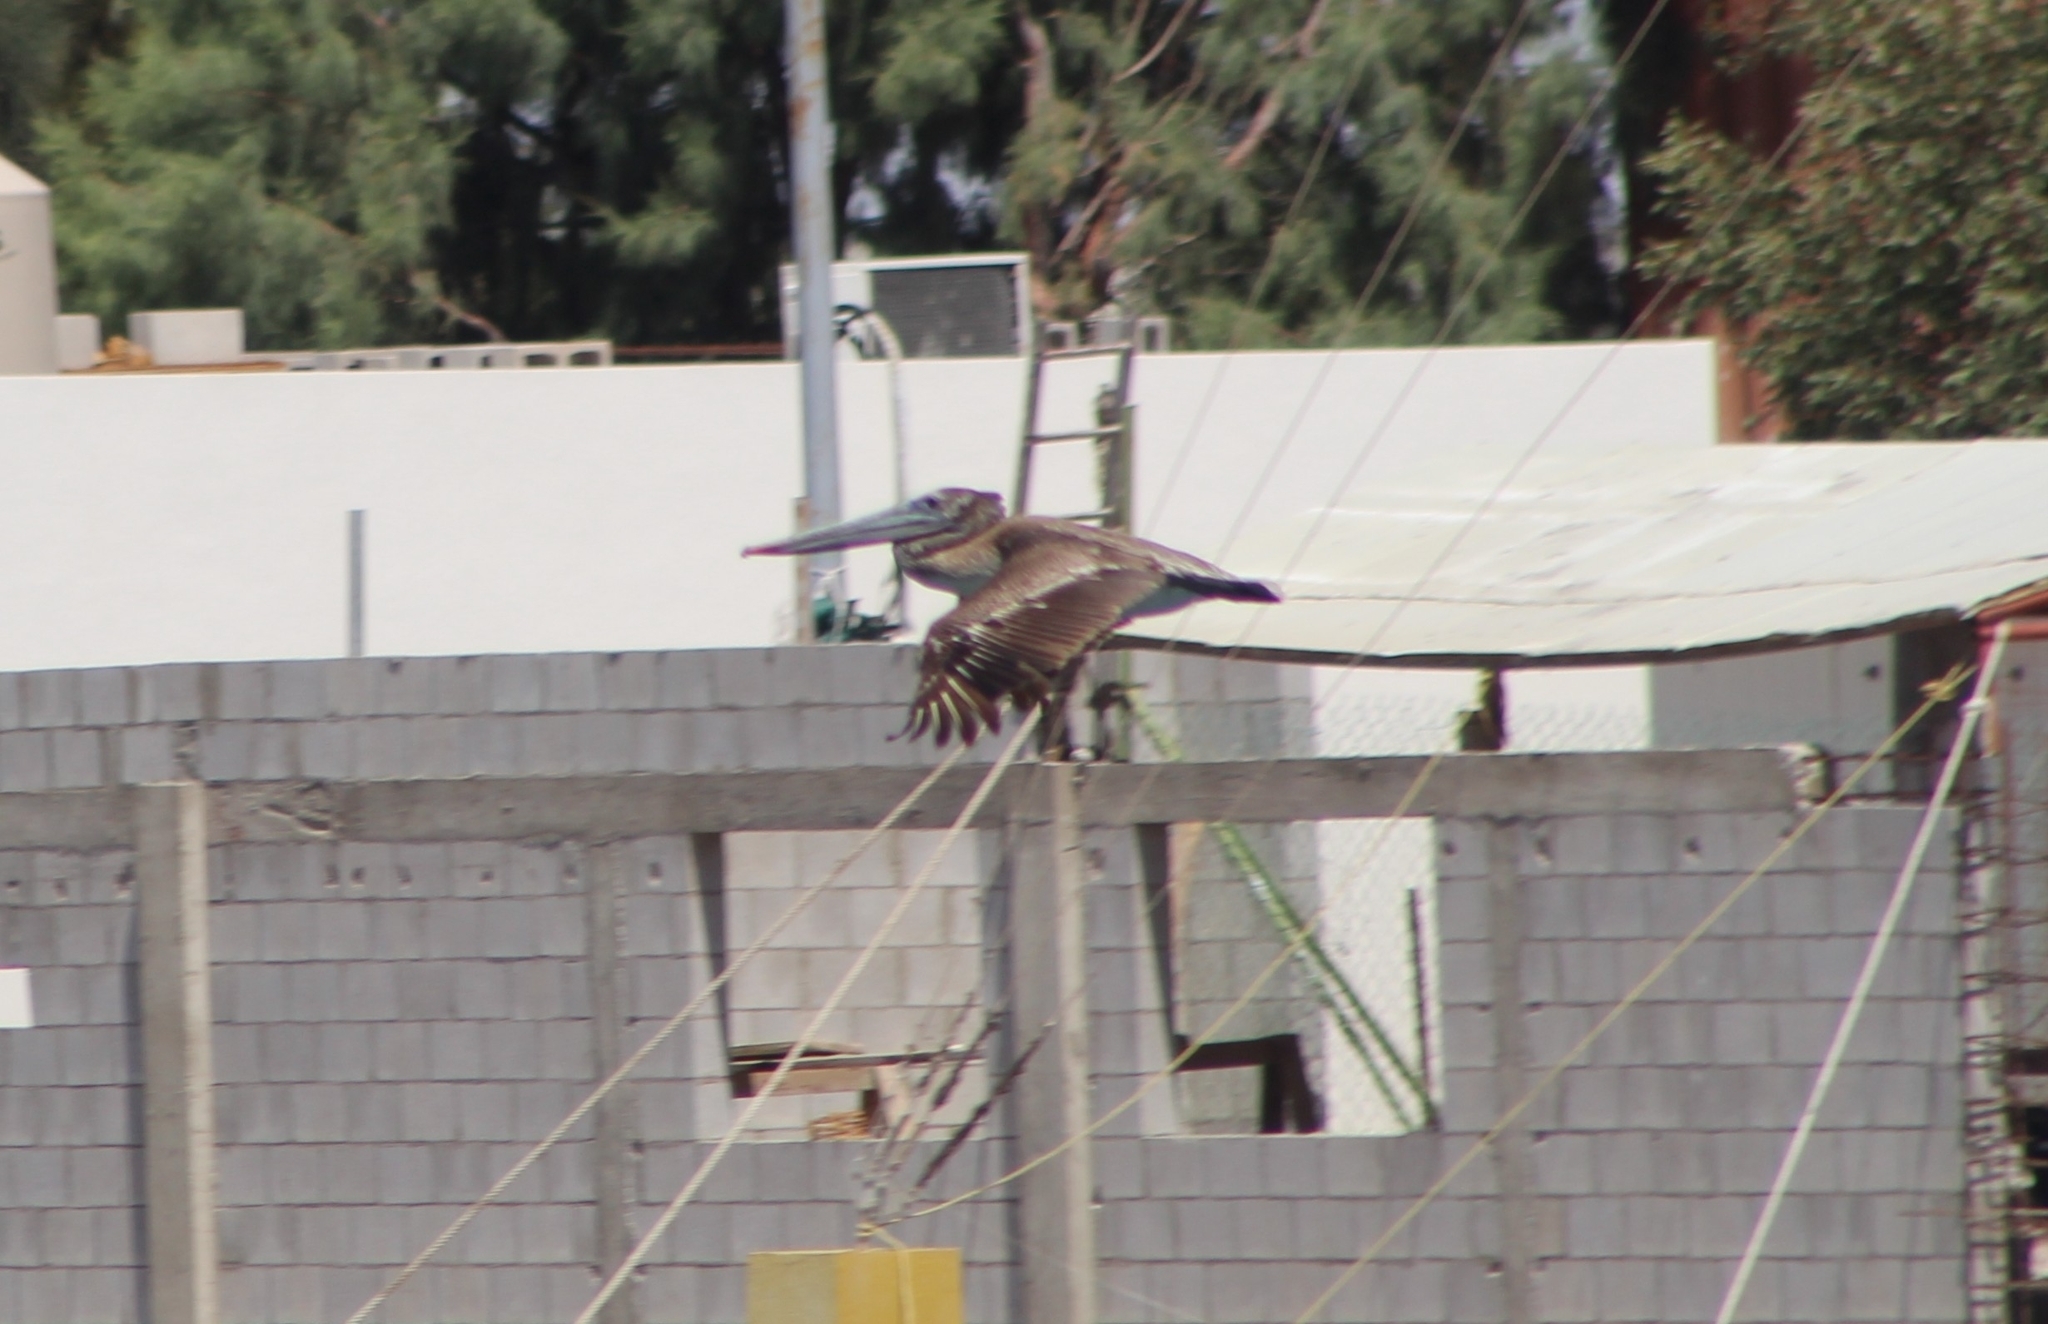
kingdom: Animalia
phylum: Chordata
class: Aves
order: Pelecaniformes
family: Pelecanidae
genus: Pelecanus
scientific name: Pelecanus occidentalis
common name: Brown pelican
